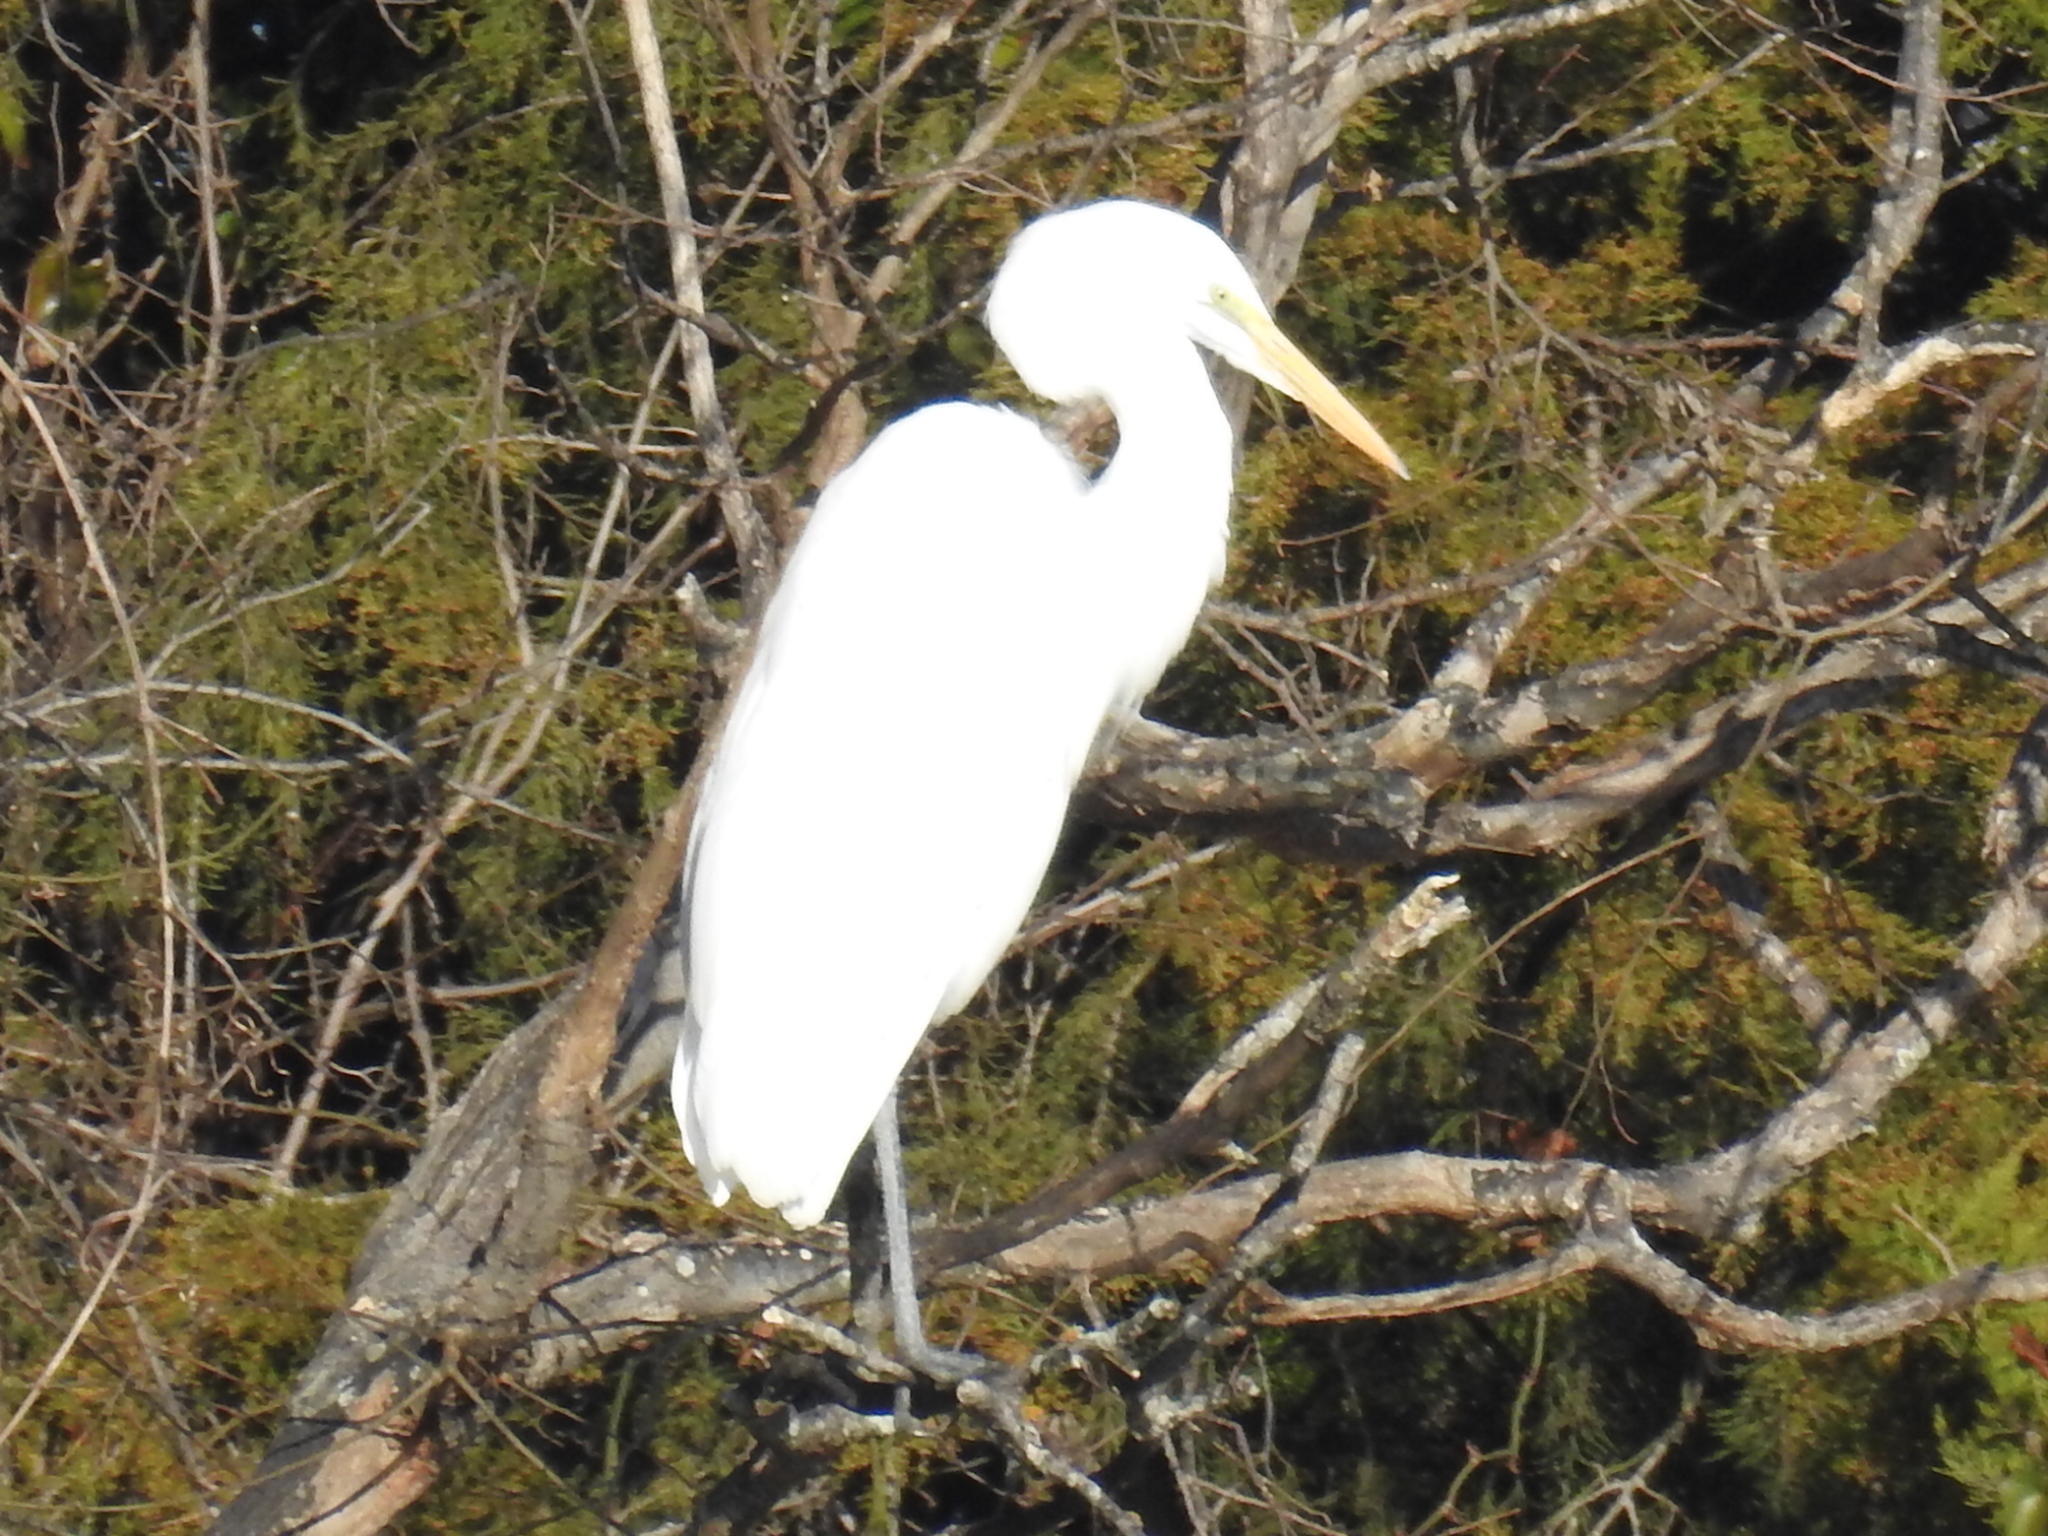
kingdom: Animalia
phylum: Chordata
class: Aves
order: Pelecaniformes
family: Ardeidae
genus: Ardea
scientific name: Ardea alba
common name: Great egret
